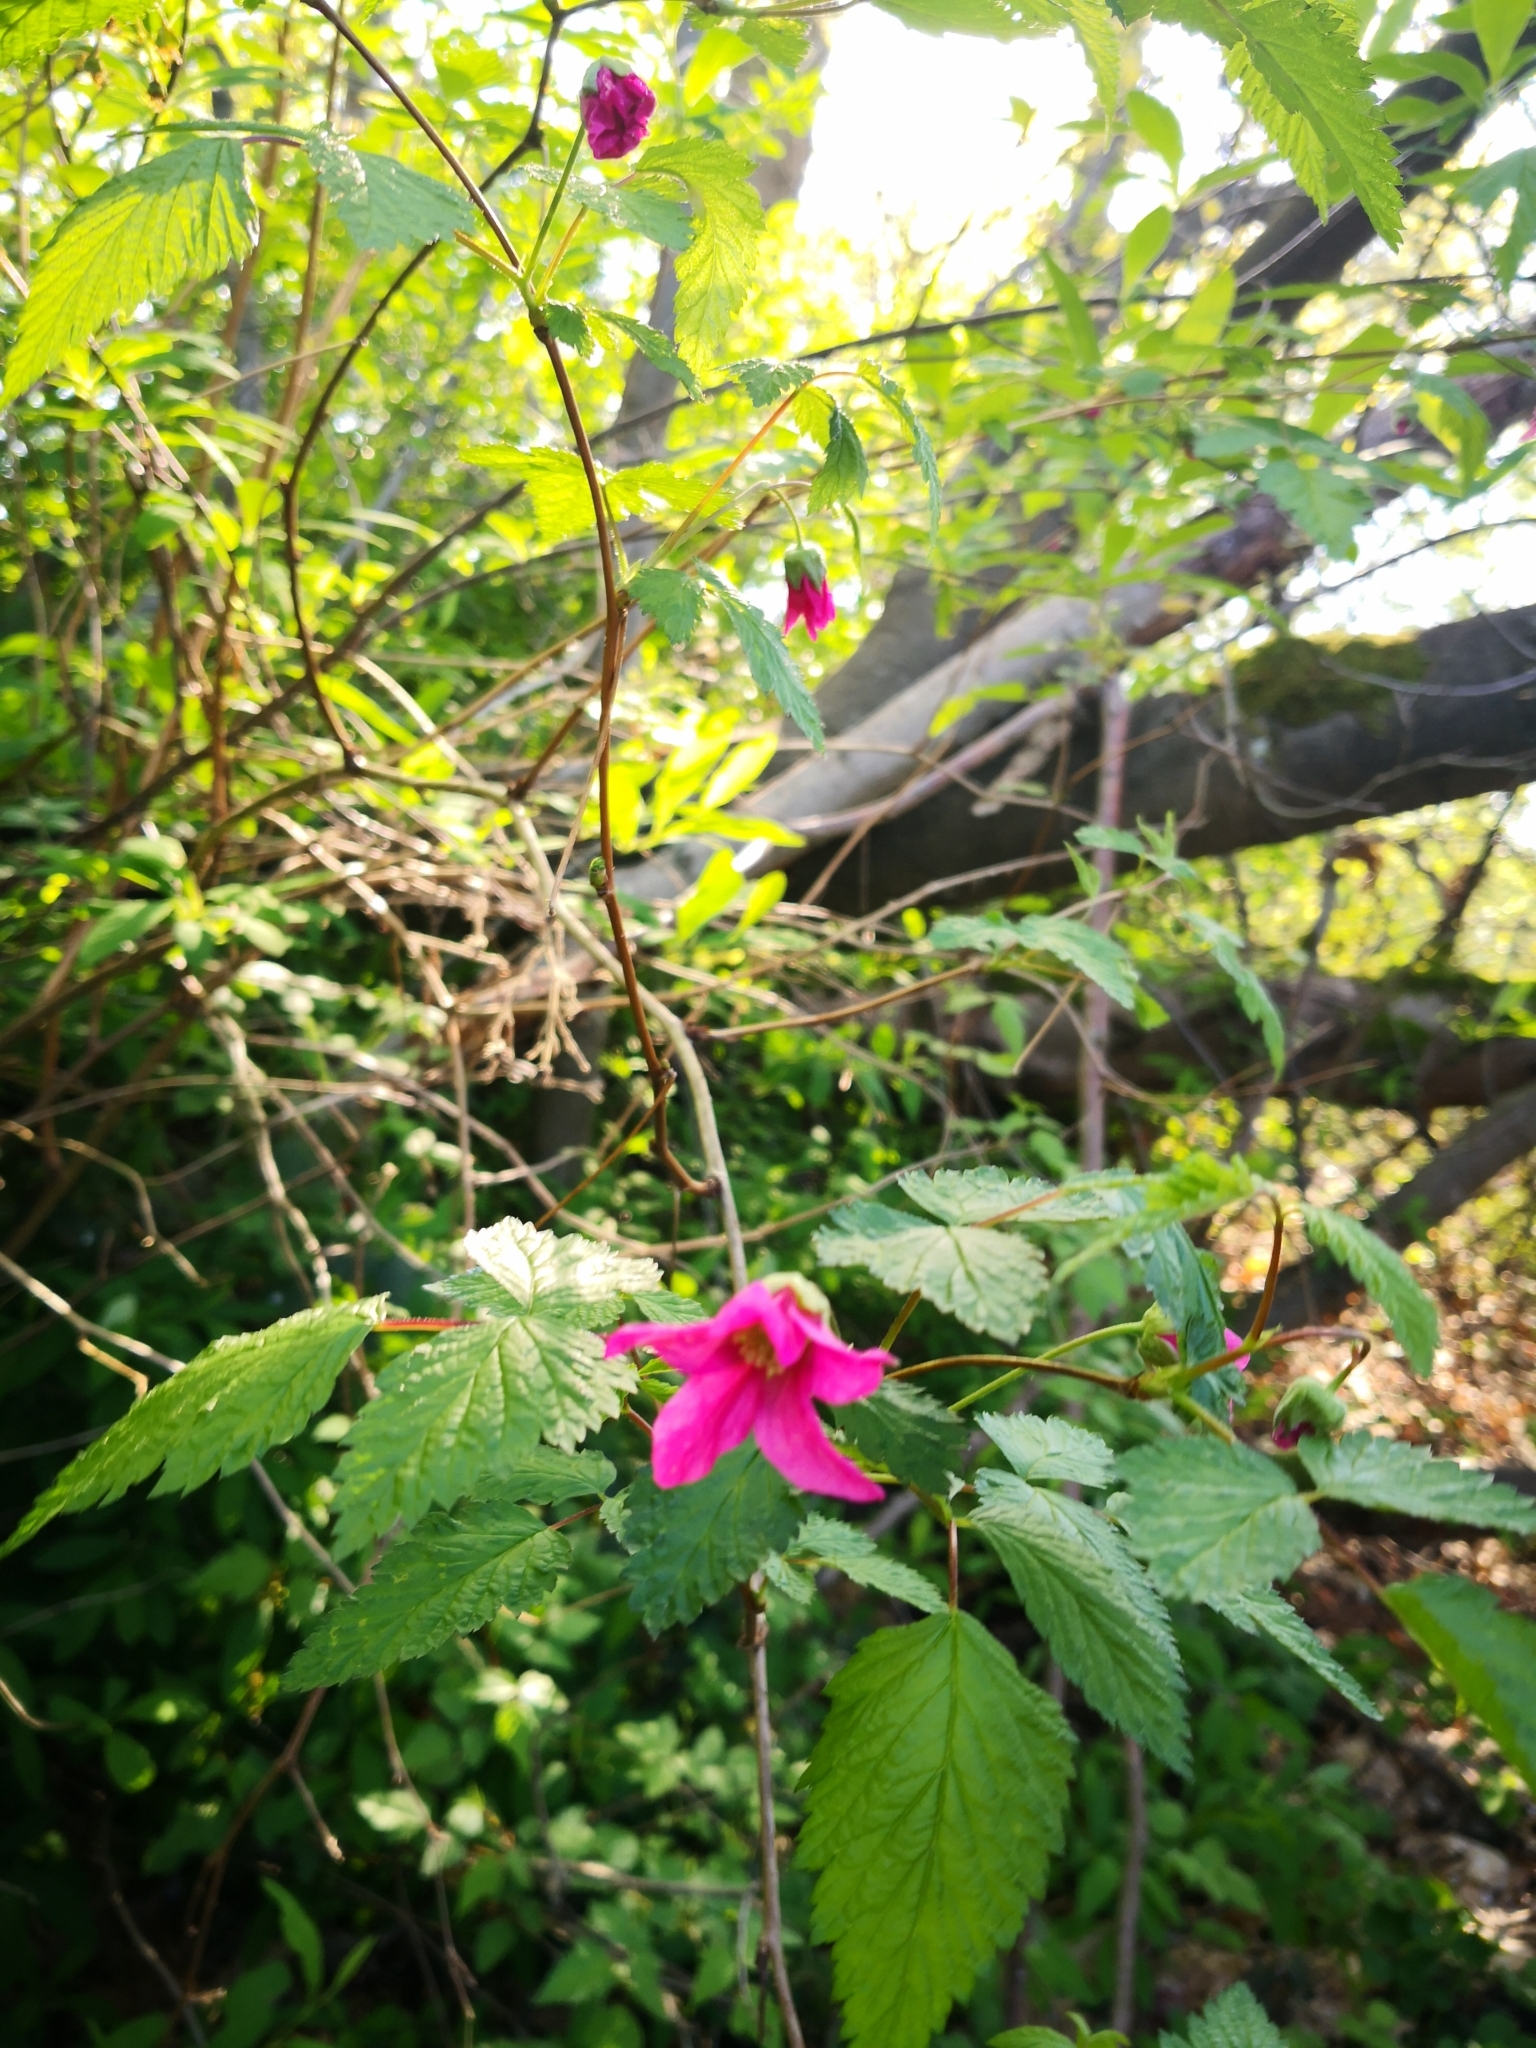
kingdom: Plantae
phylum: Tracheophyta
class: Magnoliopsida
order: Rosales
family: Rosaceae
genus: Rubus
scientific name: Rubus spectabilis
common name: Salmonberry
